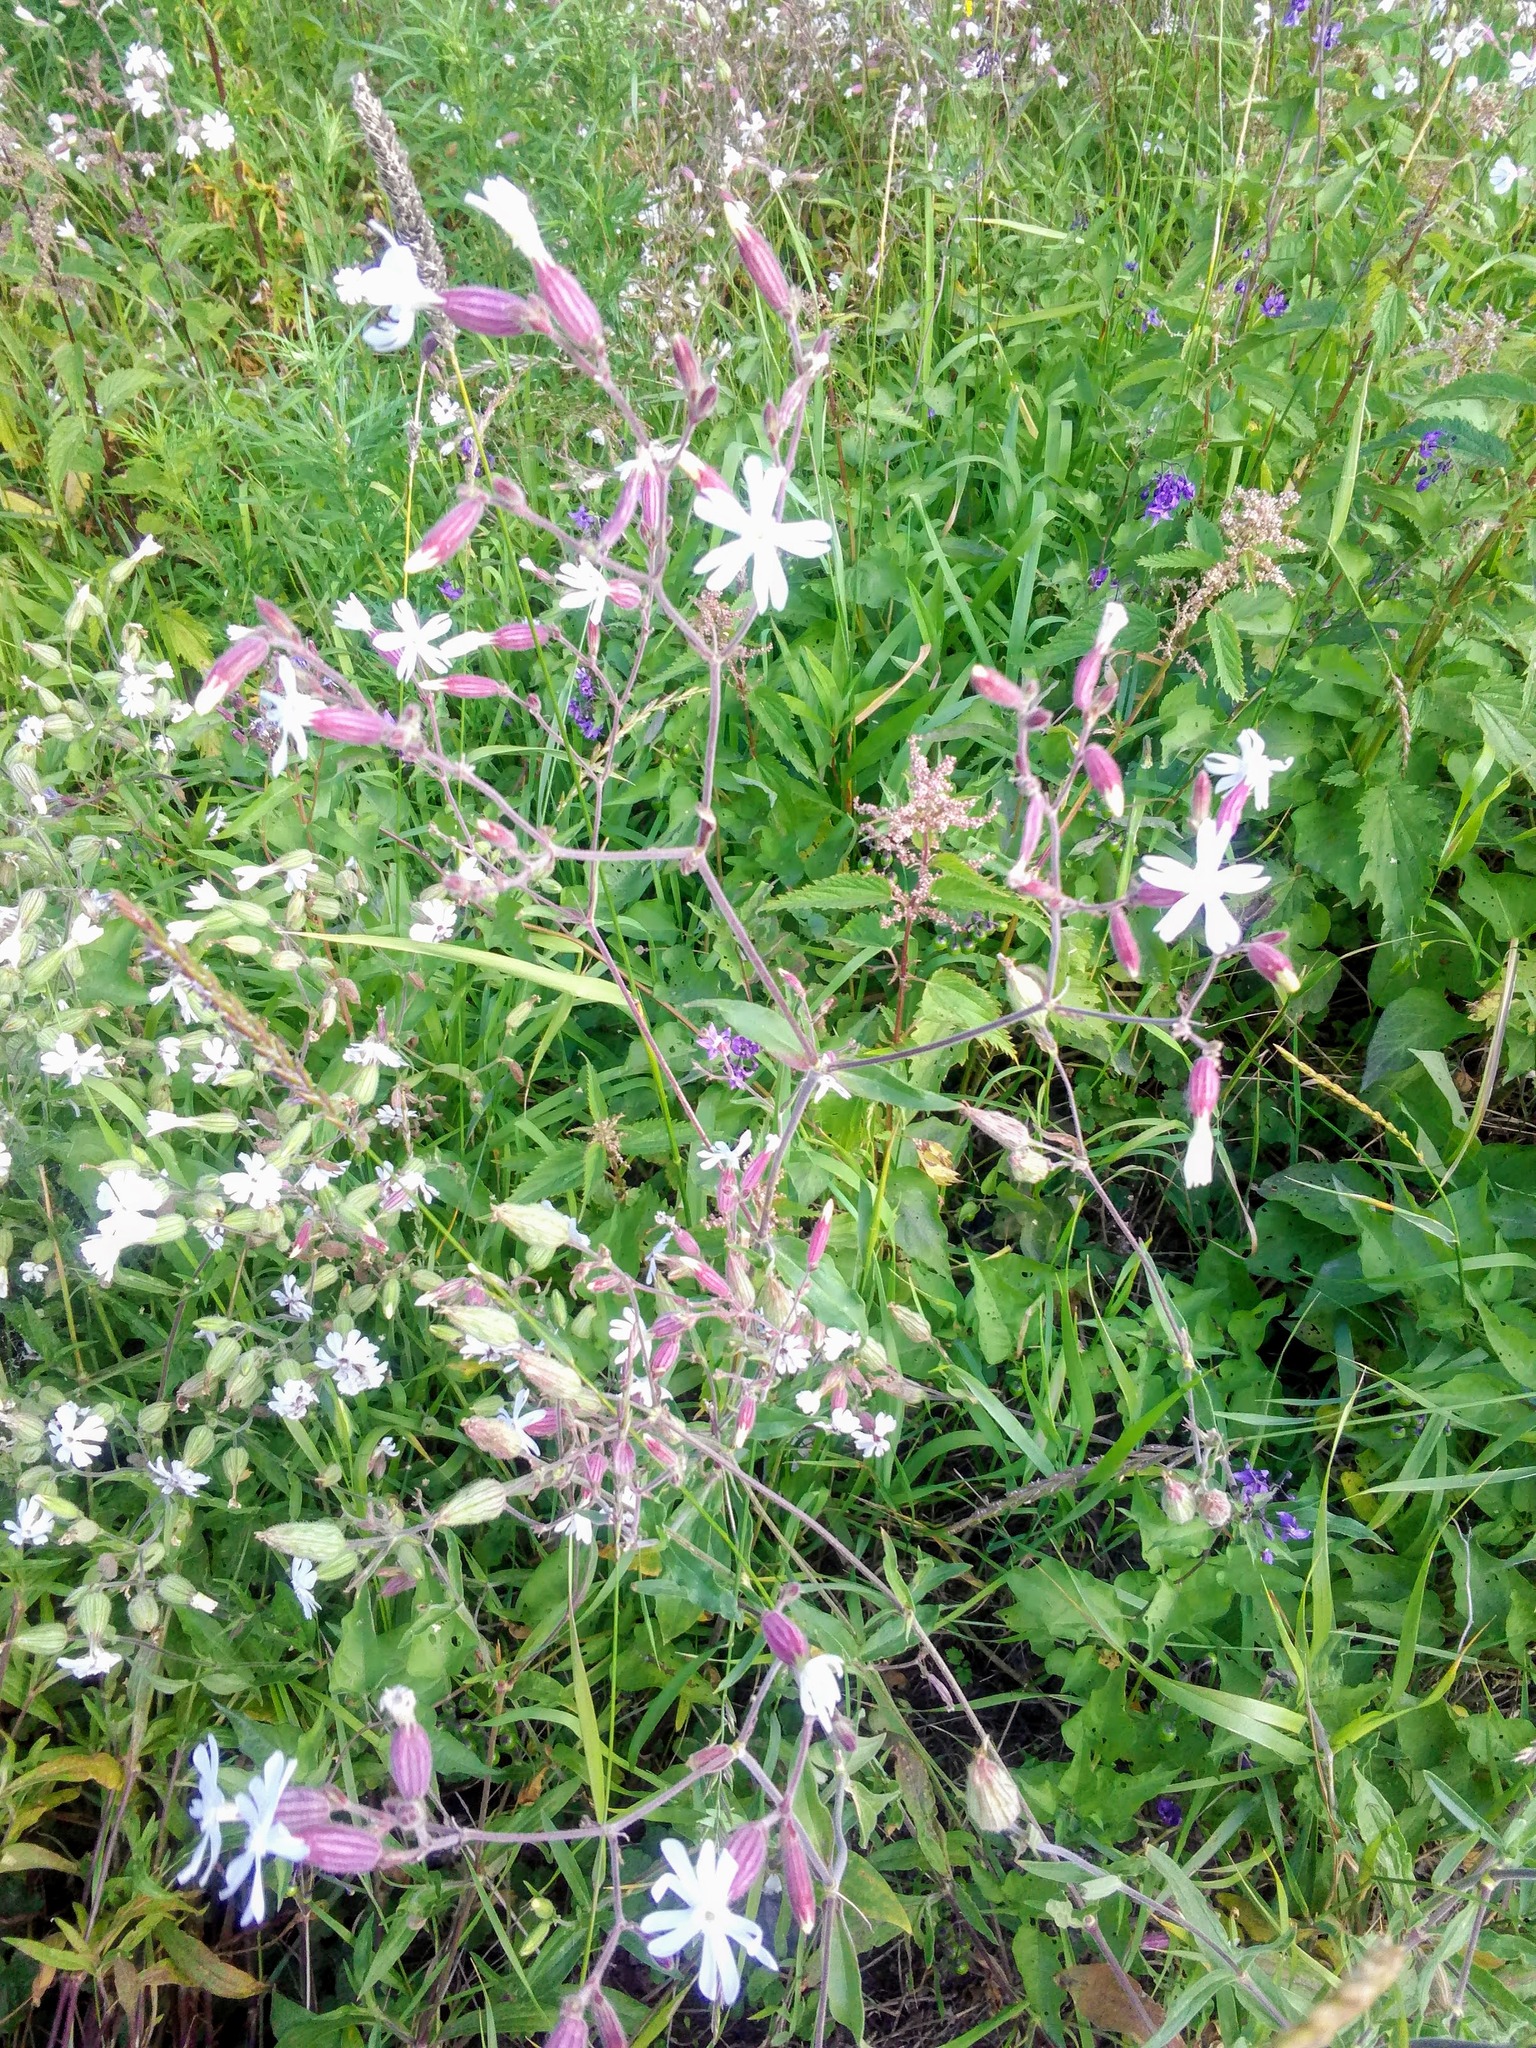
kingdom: Plantae
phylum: Tracheophyta
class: Magnoliopsida
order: Caryophyllales
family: Caryophyllaceae
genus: Silene
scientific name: Silene latifolia
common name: White campion
